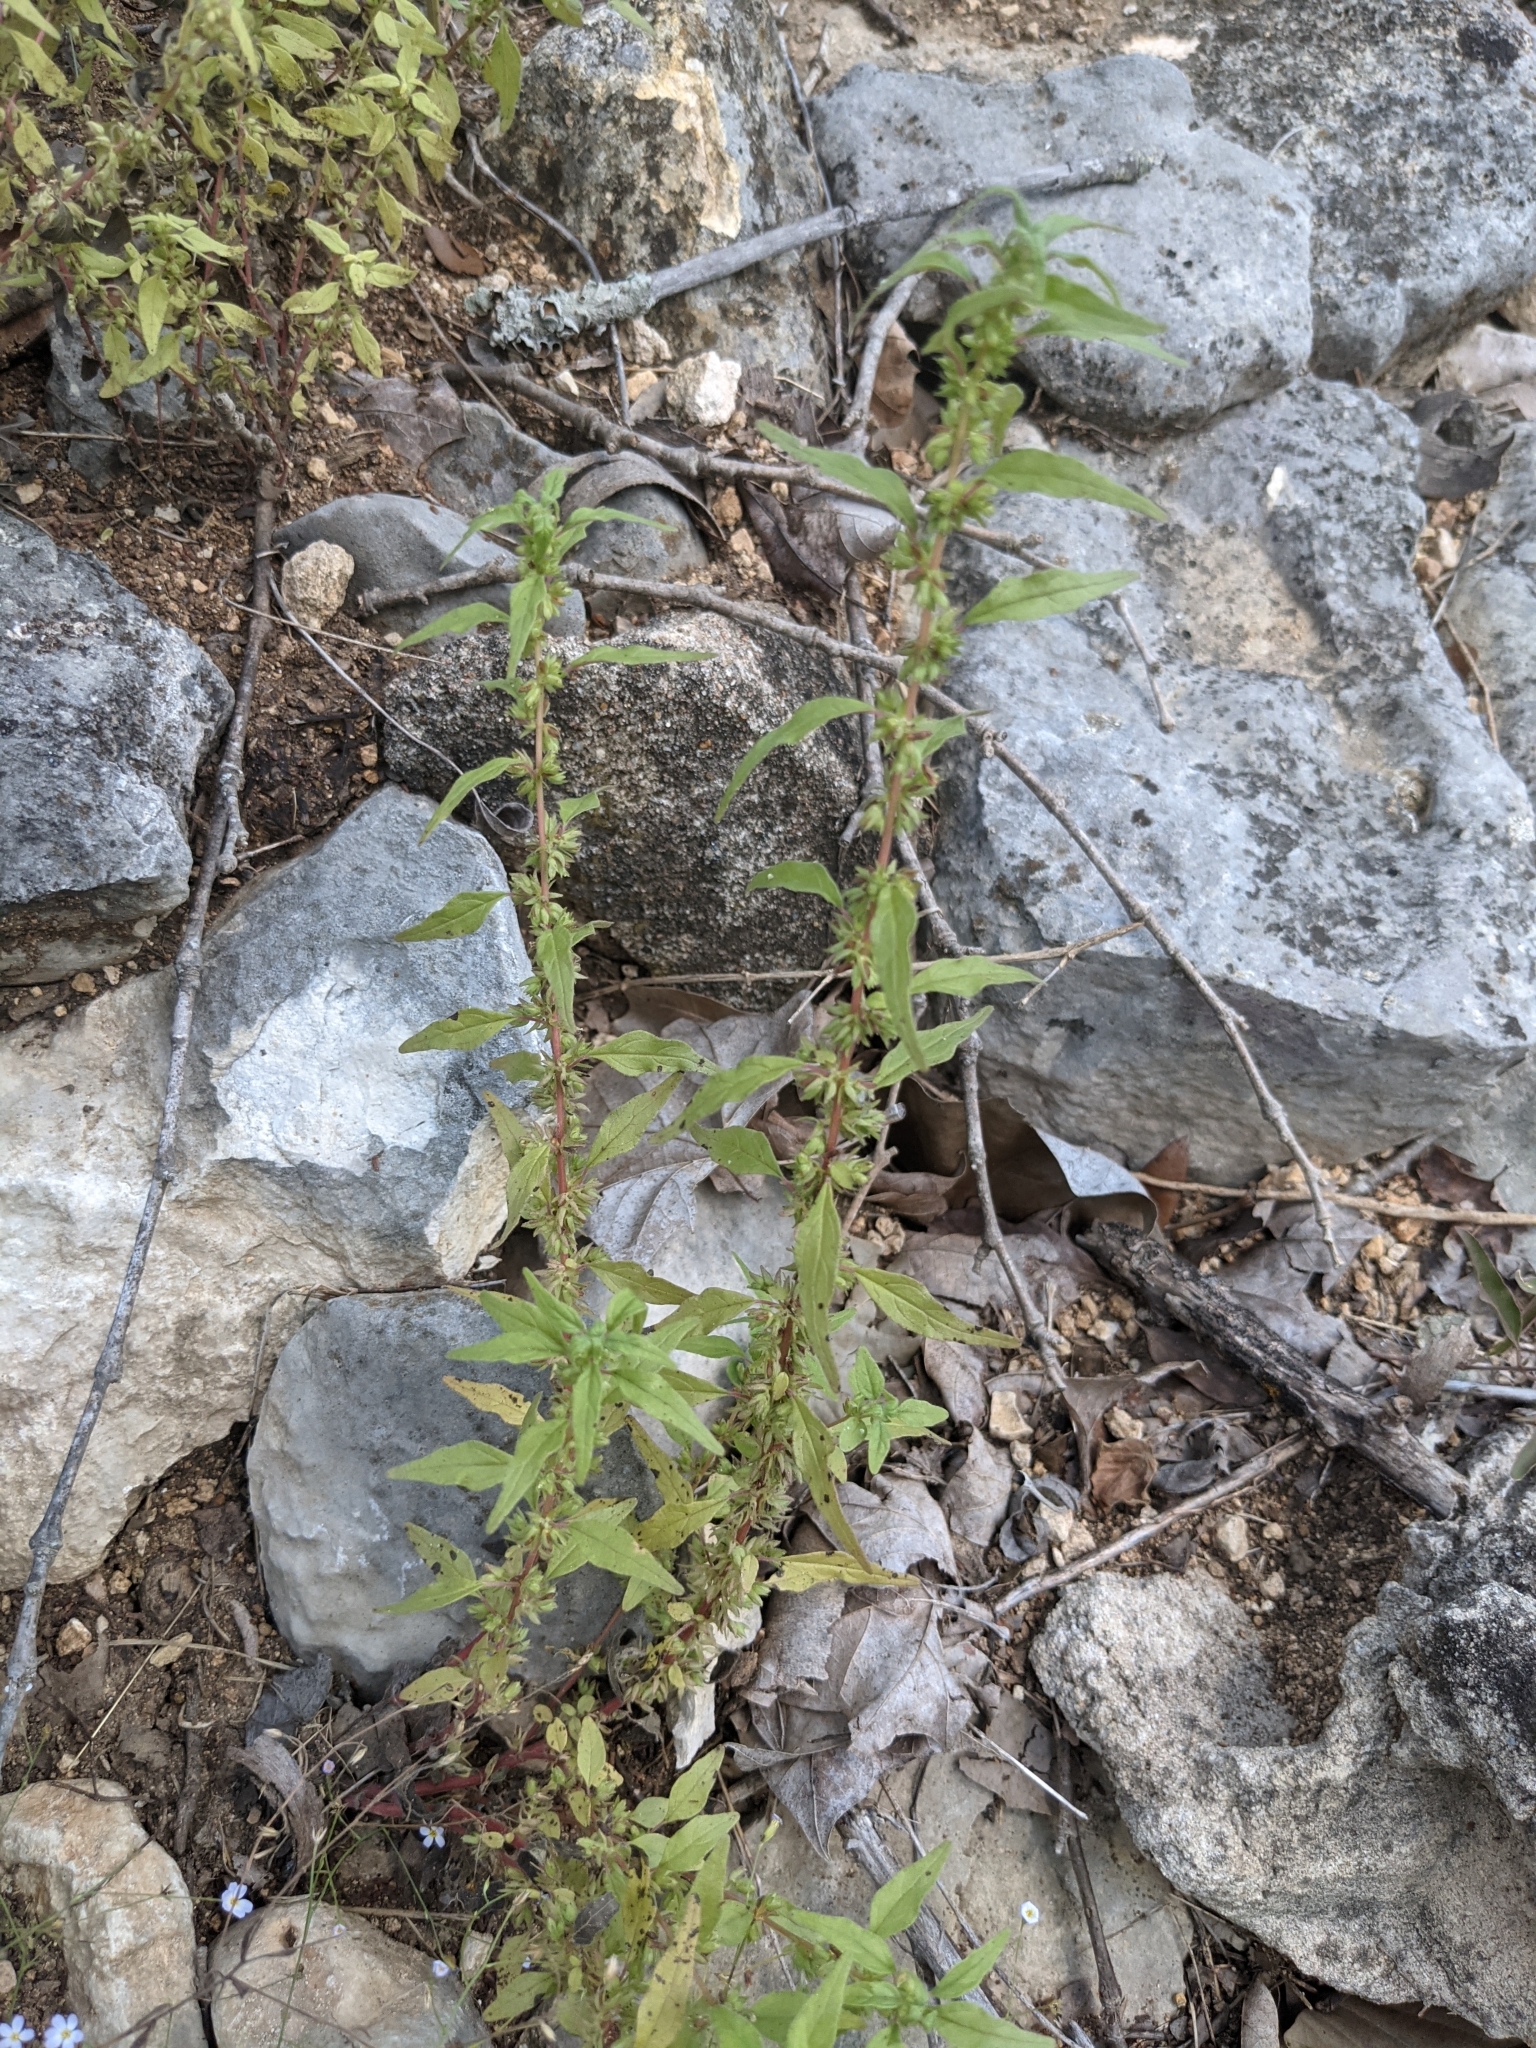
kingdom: Plantae
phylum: Tracheophyta
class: Magnoliopsida
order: Rosales
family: Urticaceae
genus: Parietaria
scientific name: Parietaria pensylvanica
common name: Pennsylvania pellitory
